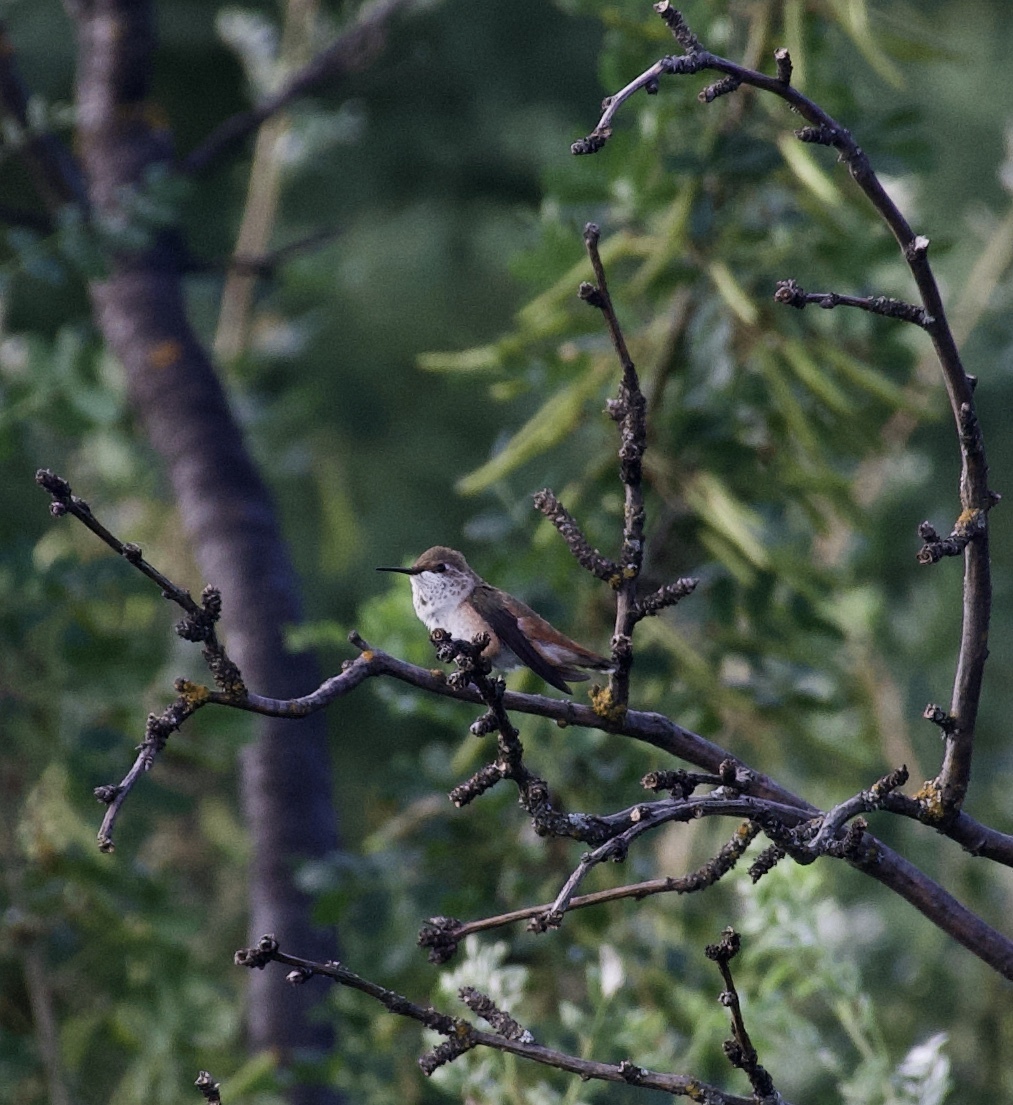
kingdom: Animalia
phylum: Chordata
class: Aves
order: Apodiformes
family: Trochilidae
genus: Selasphorus
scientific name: Selasphorus rufus
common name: Rufous hummingbird
